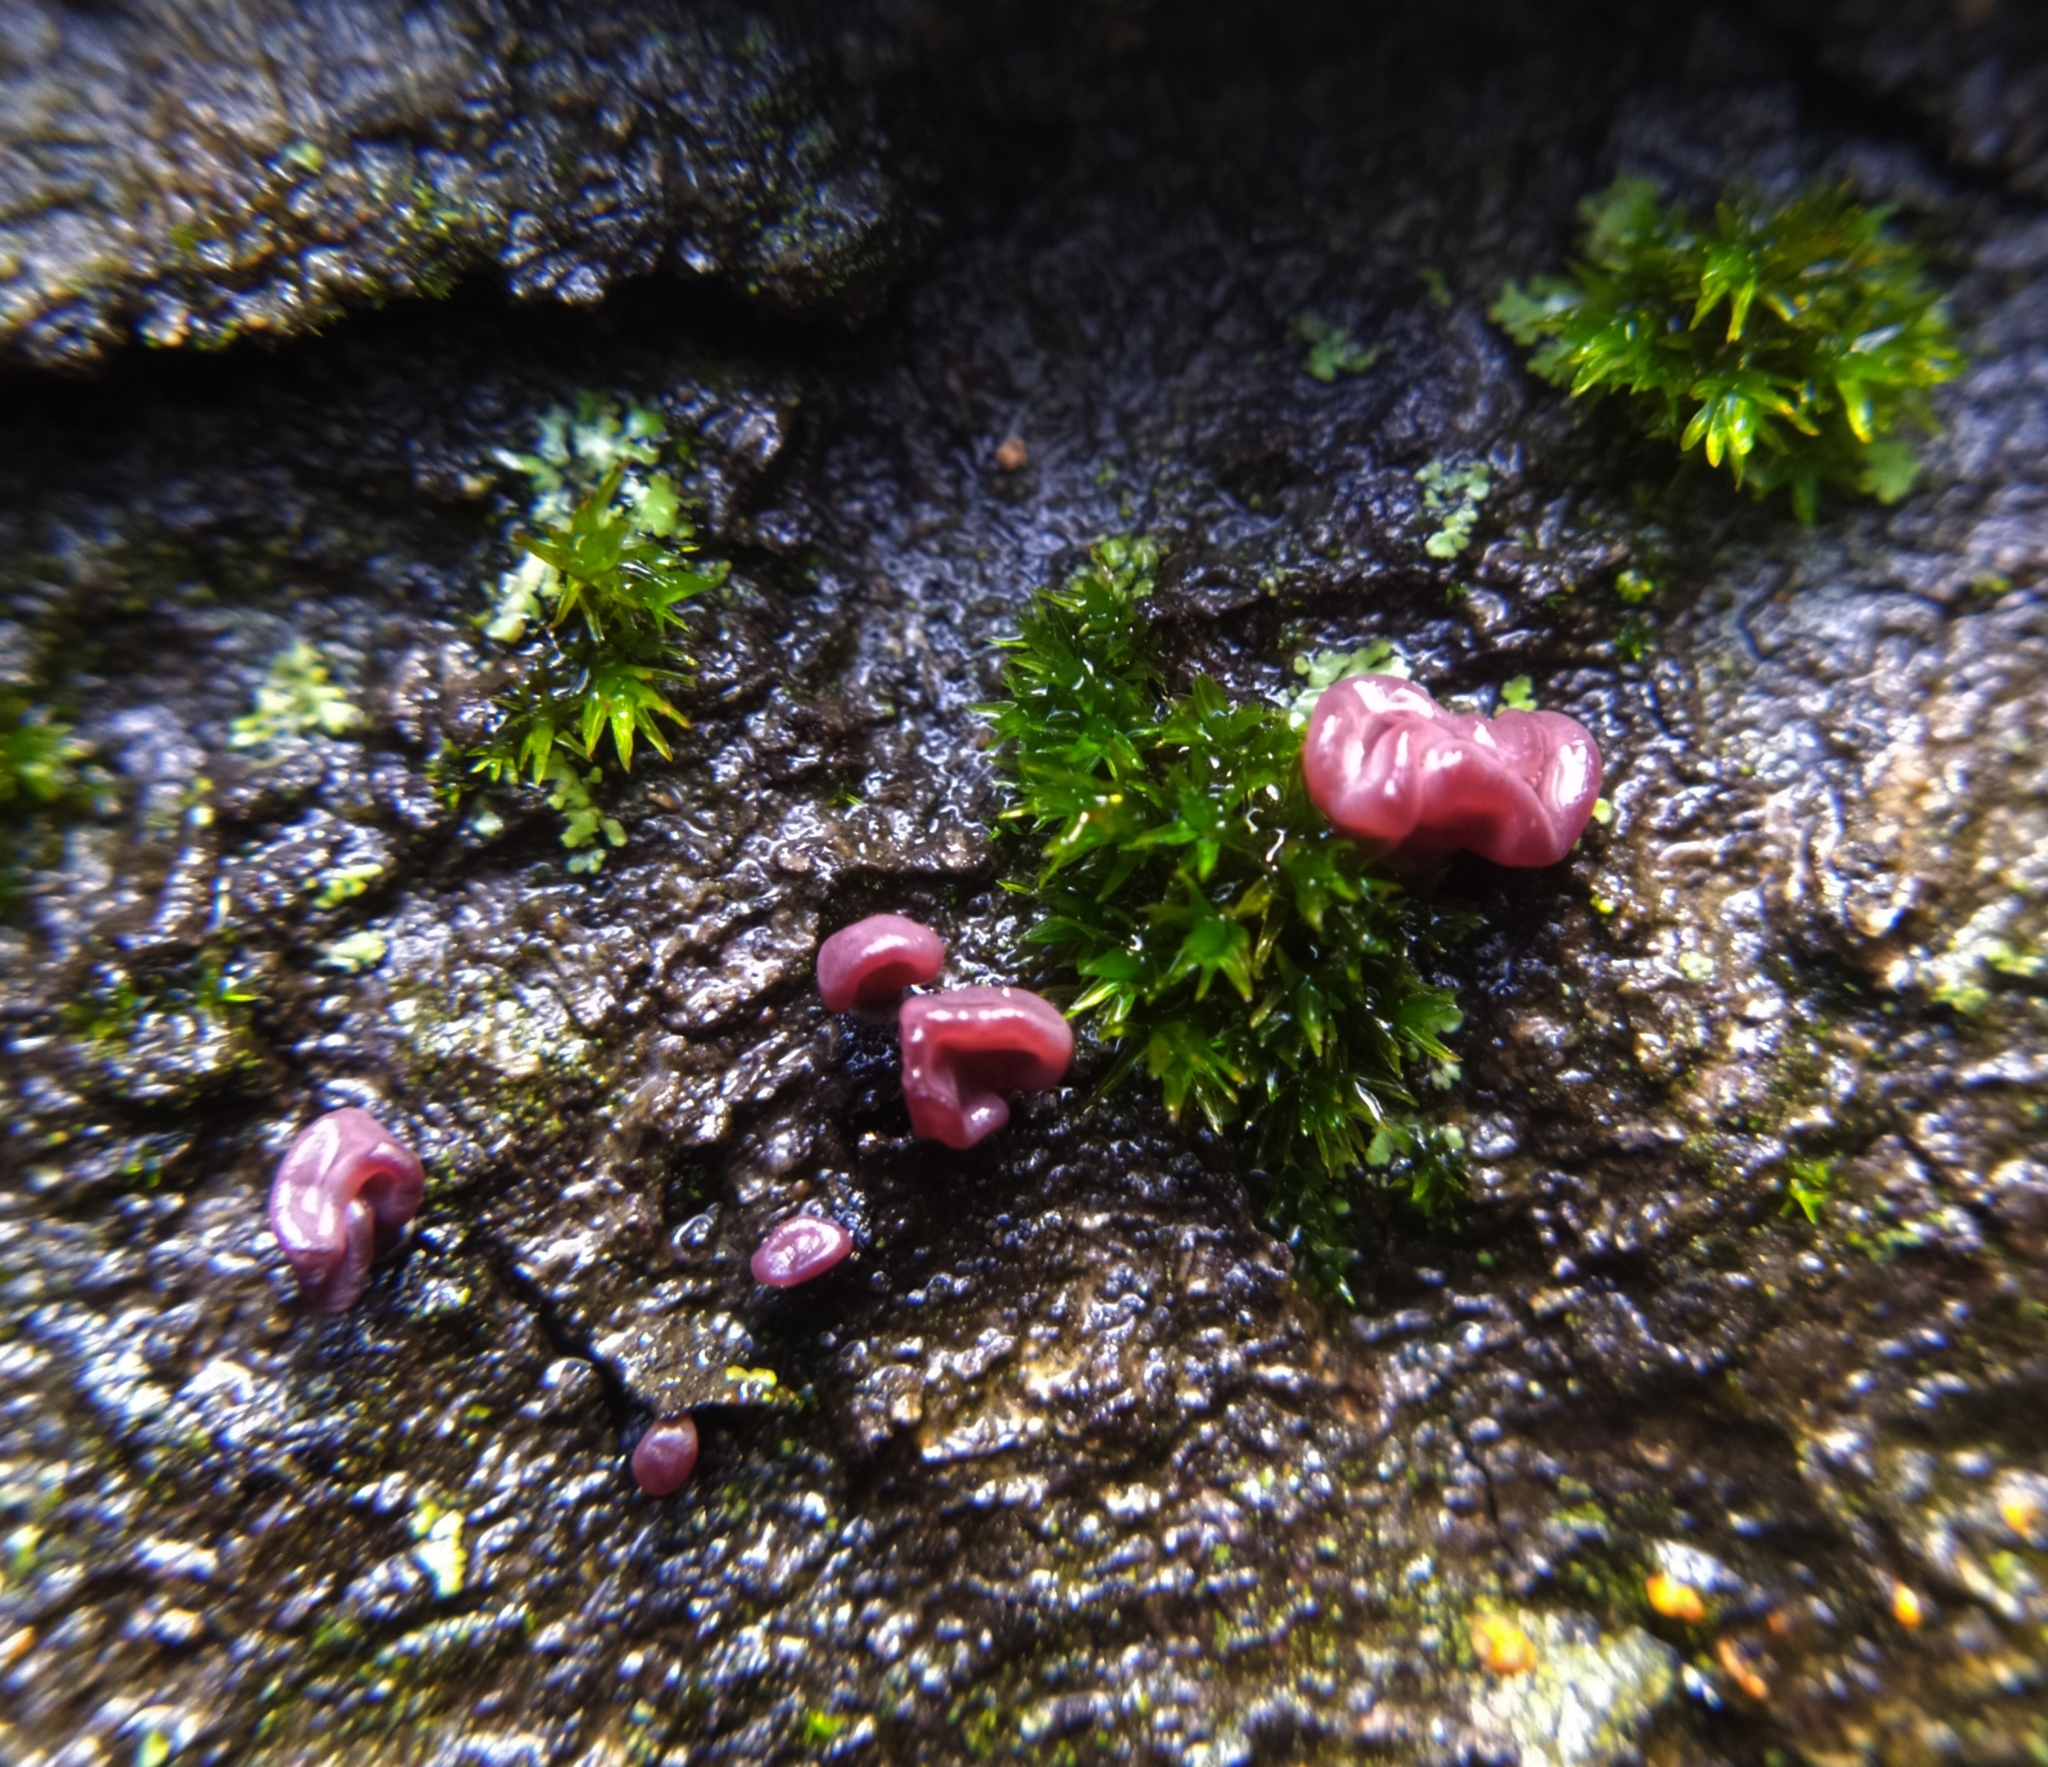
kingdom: Fungi
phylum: Ascomycota
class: Leotiomycetes
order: Helotiales
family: Gelatinodiscaceae
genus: Ascocoryne
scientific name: Ascocoryne sarcoides
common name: Purple jellydisc
